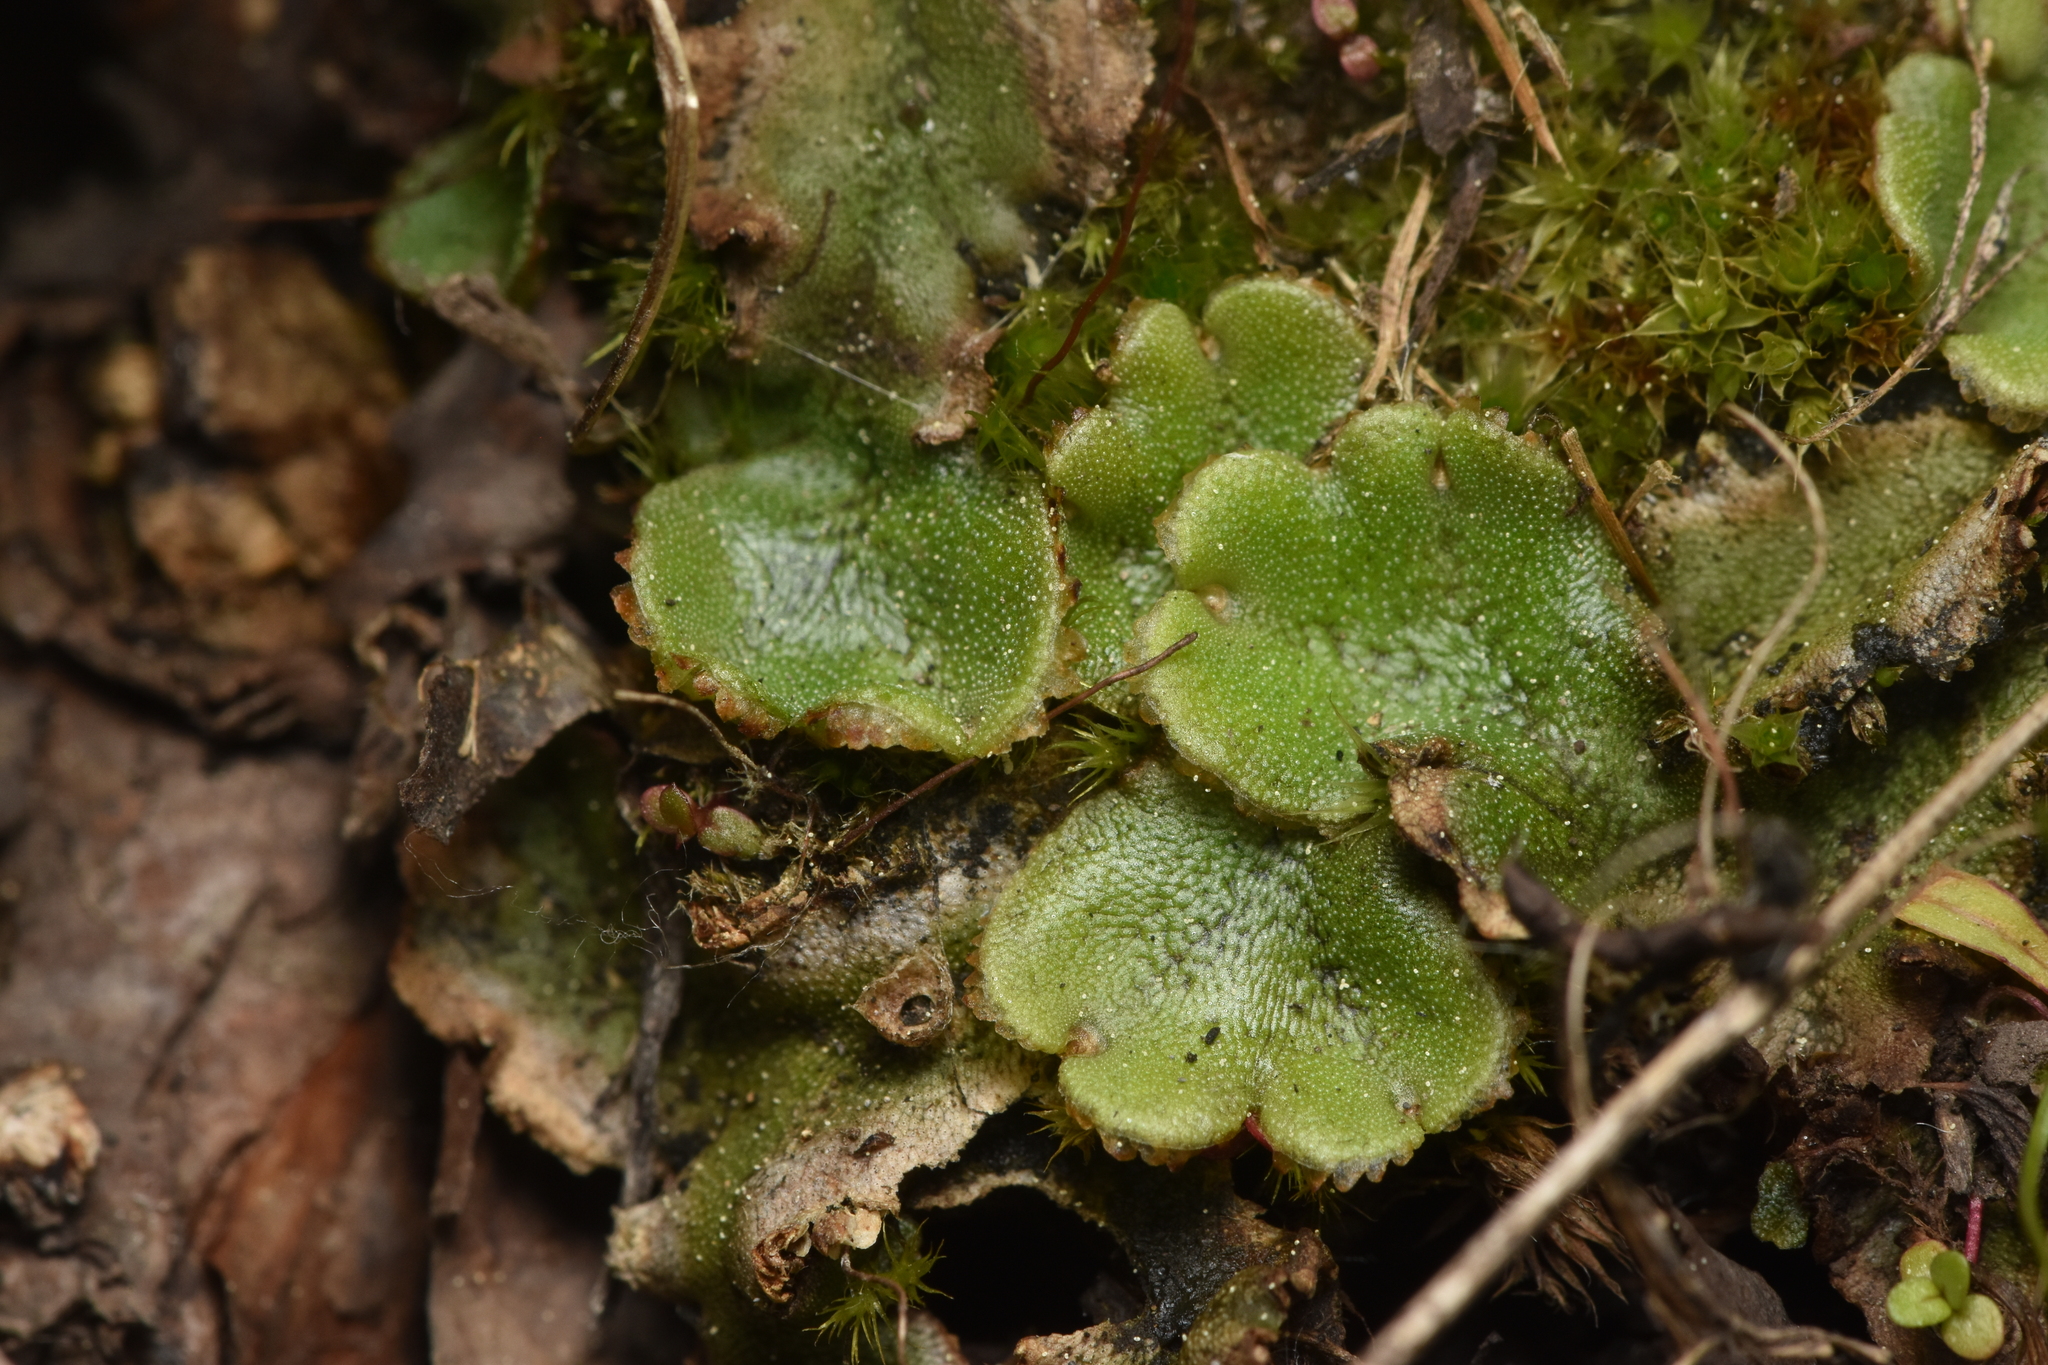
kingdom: Plantae
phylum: Marchantiophyta
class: Marchantiopsida
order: Marchantiales
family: Marchantiaceae
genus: Marchantia
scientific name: Marchantia polymorpha
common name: Common liverwort
